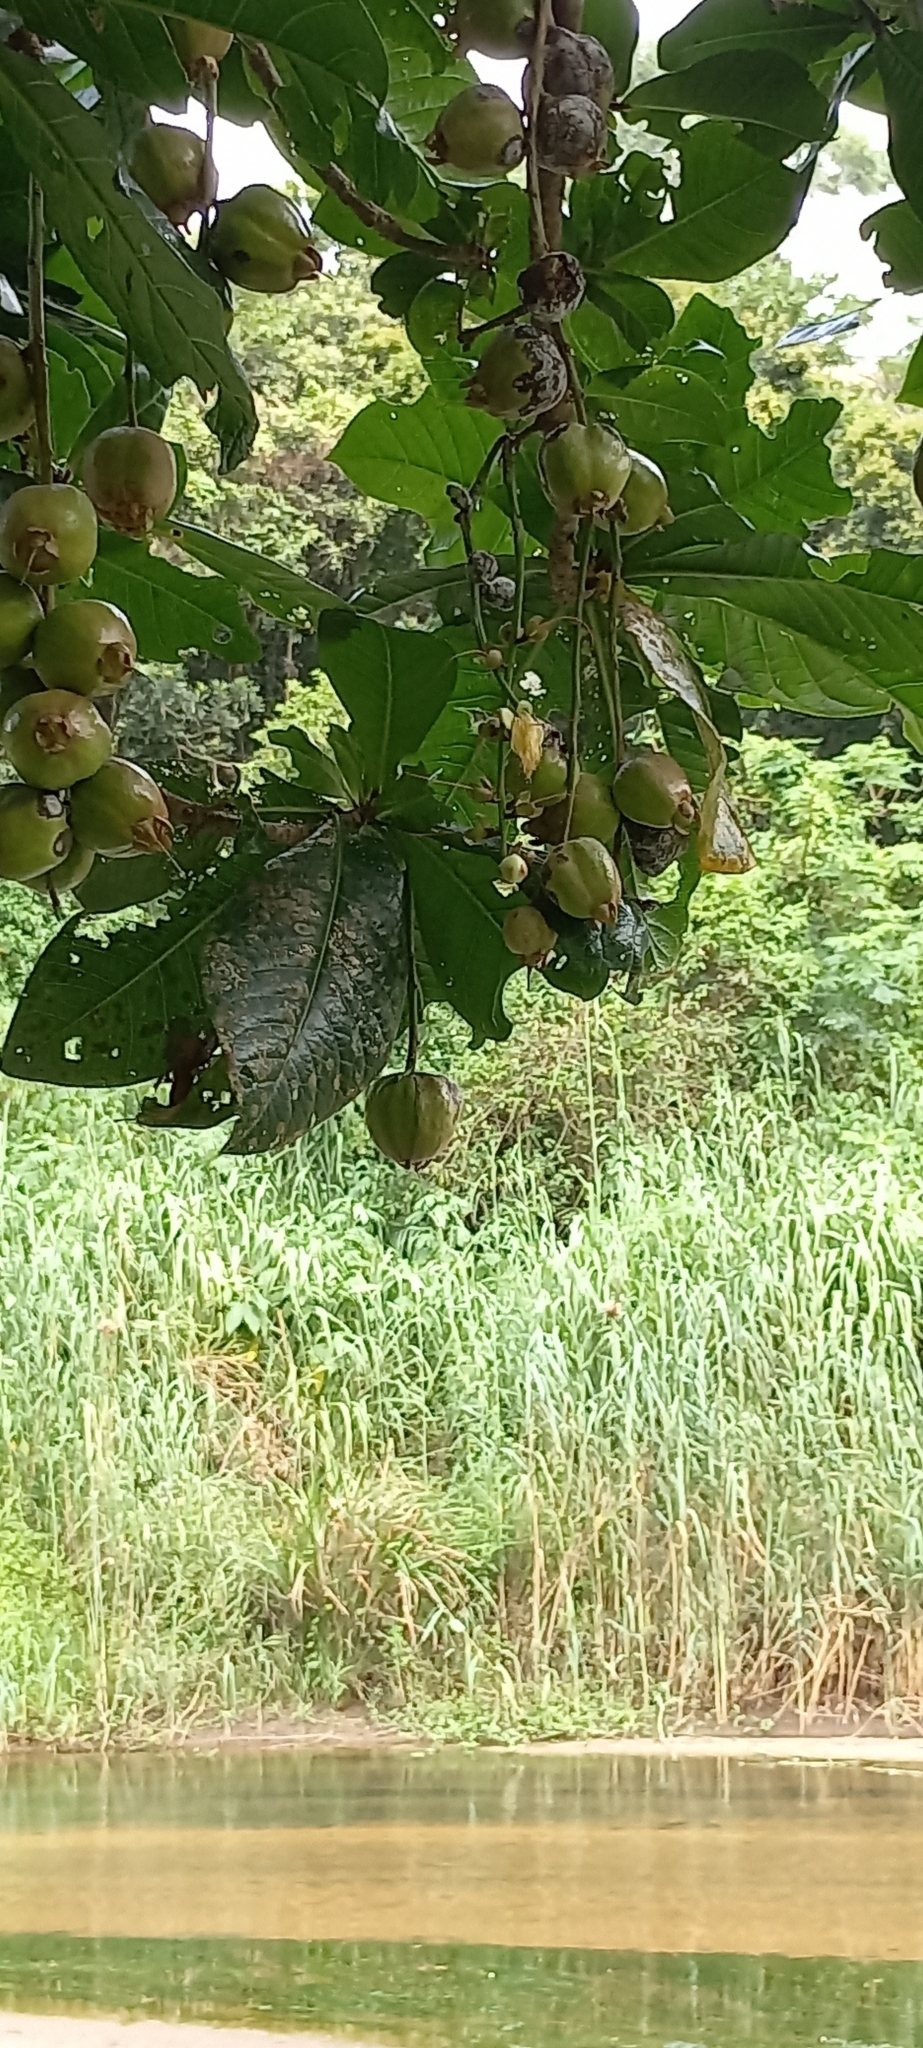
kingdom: Plantae
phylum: Tracheophyta
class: Magnoliopsida
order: Ericales
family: Lecythidaceae
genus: Barringtonia
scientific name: Barringtonia racemosa
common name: Brackwater mangrove
